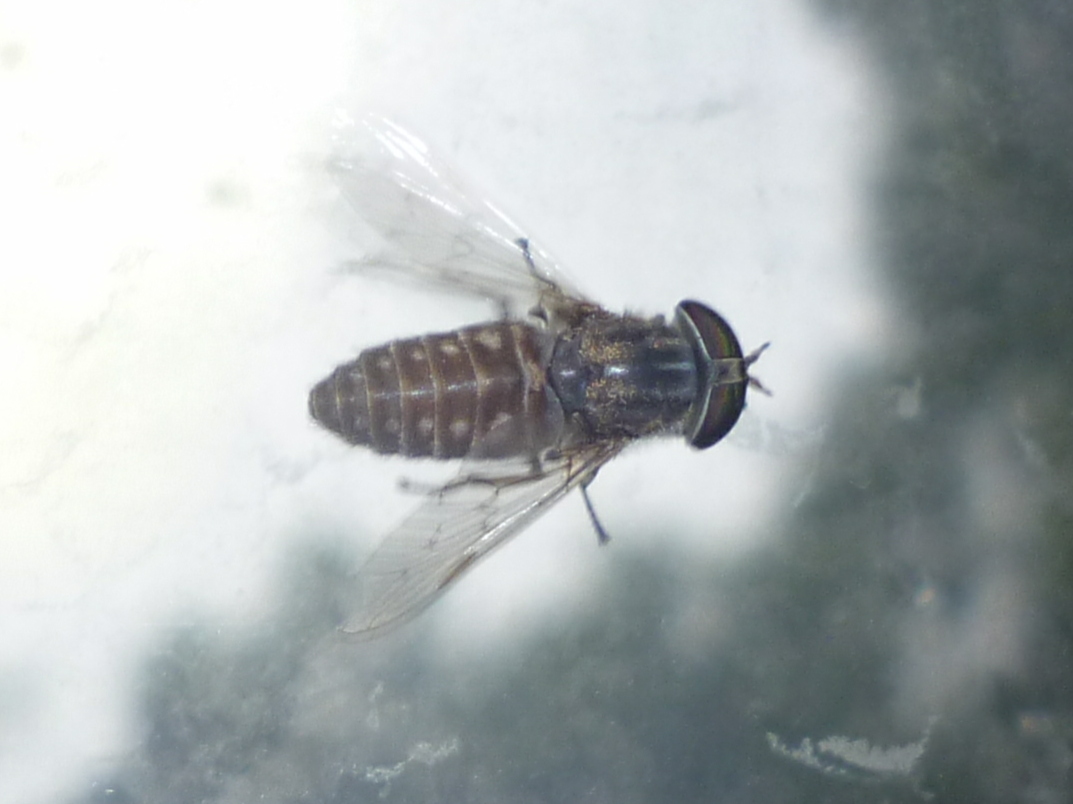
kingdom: Animalia
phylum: Arthropoda
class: Insecta
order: Diptera
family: Tabanidae
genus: Tabanus
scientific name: Tabanus pumilus
